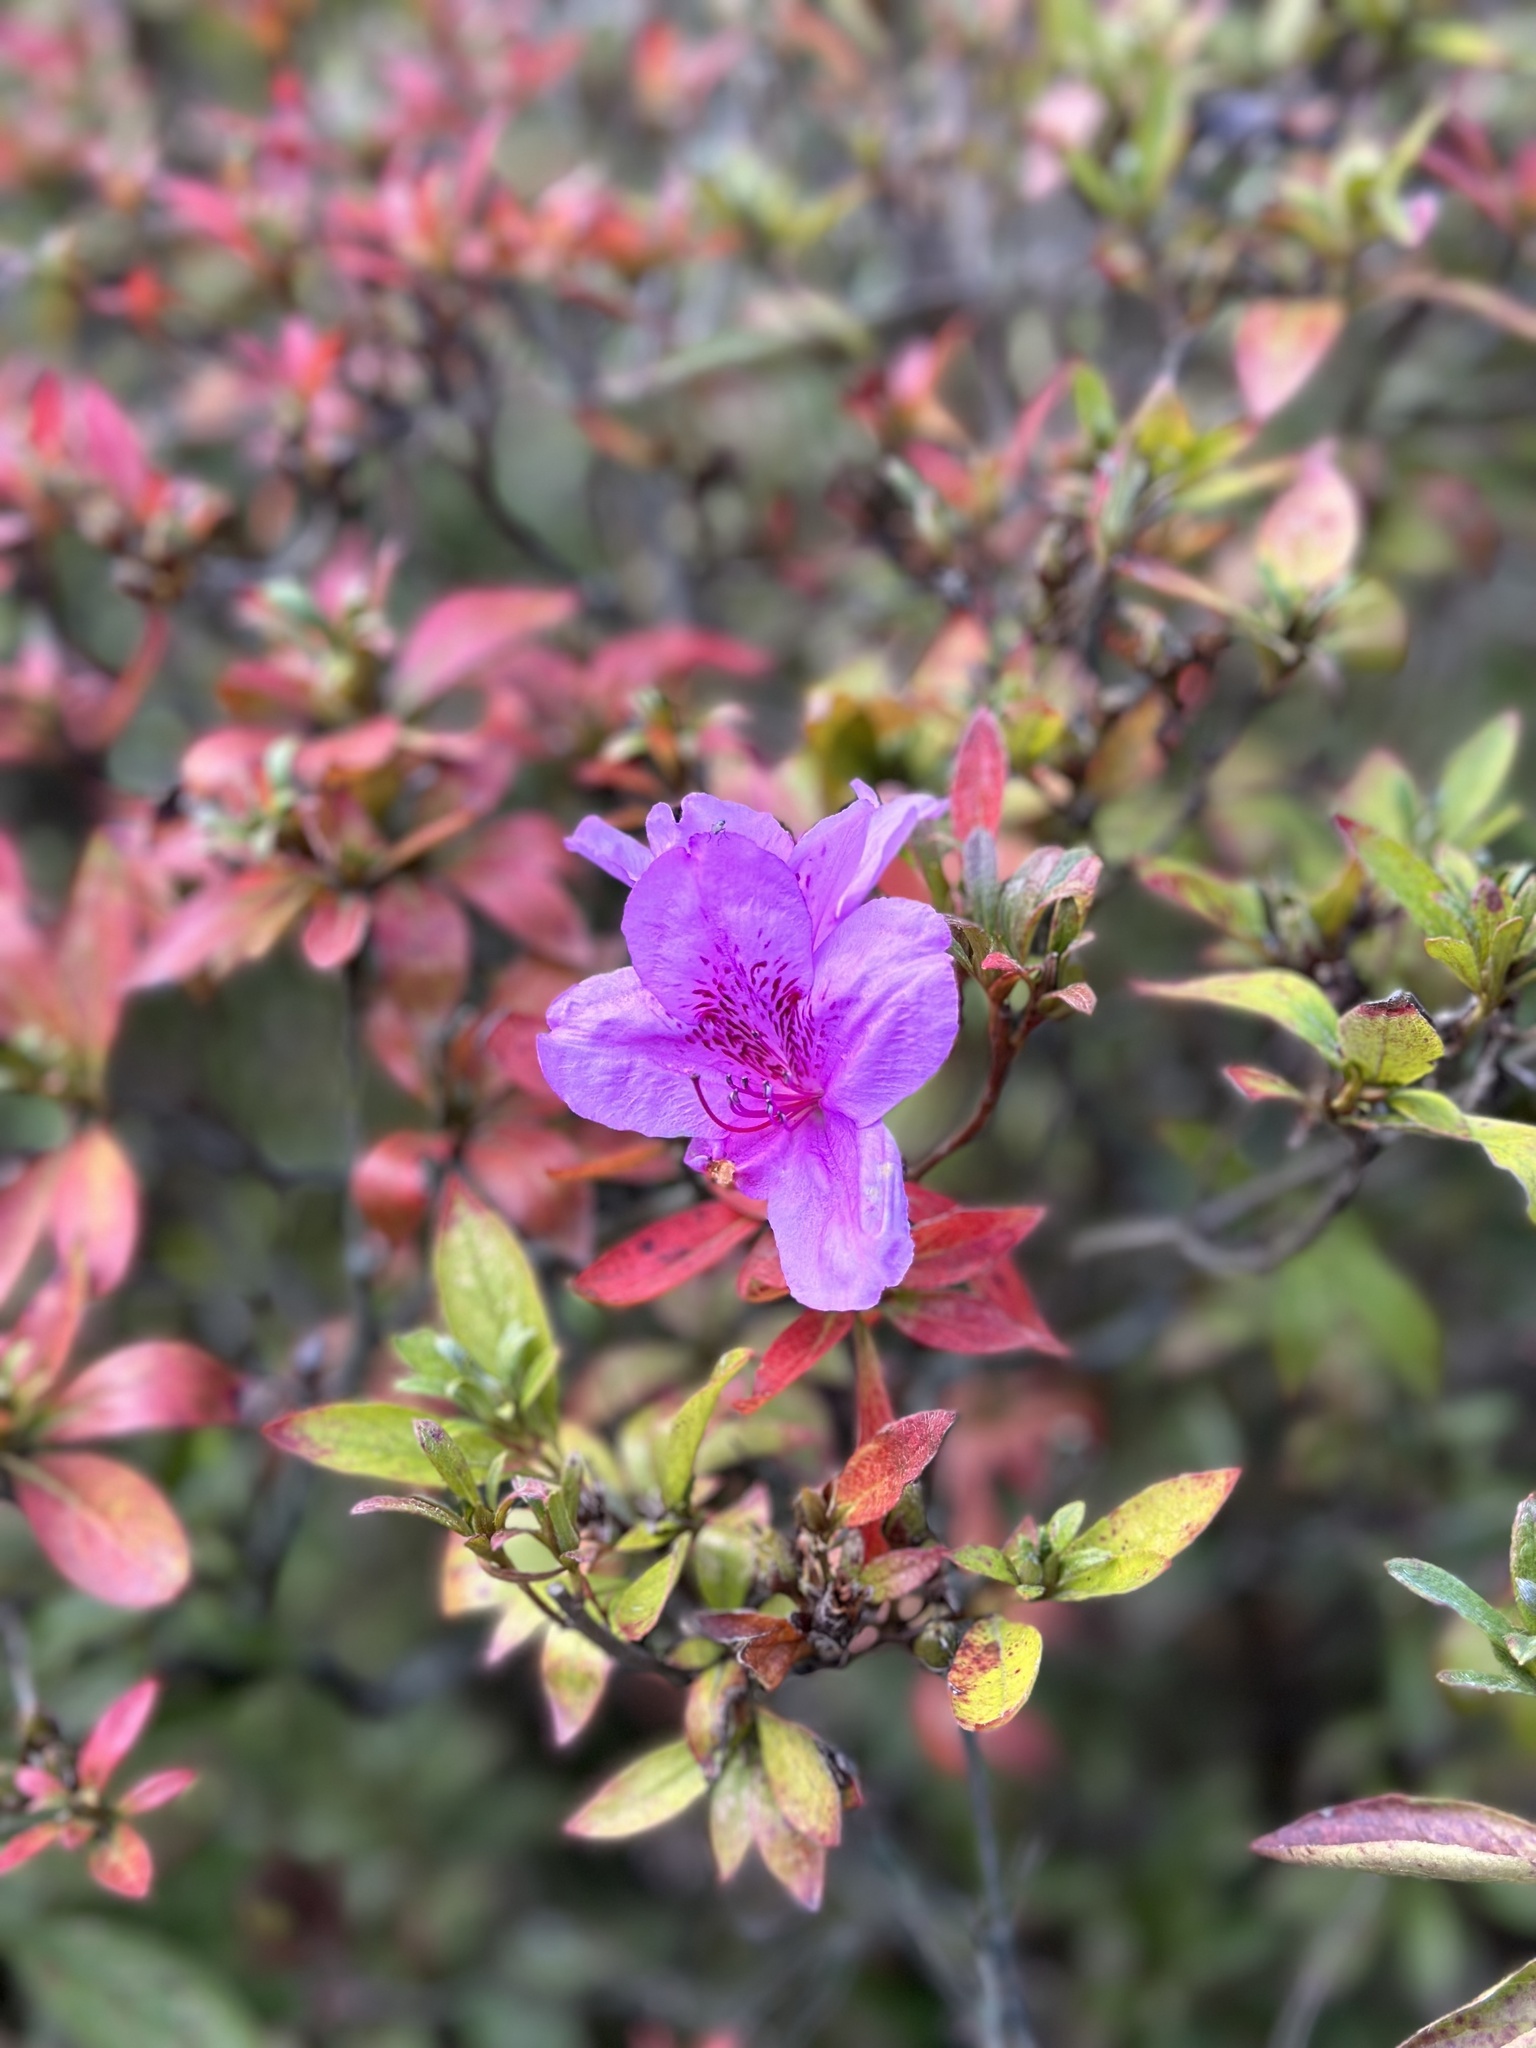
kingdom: Plantae
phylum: Tracheophyta
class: Magnoliopsida
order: Ericales
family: Ericaceae
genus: Rhododendron
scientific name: Rhododendron mucronulatum
